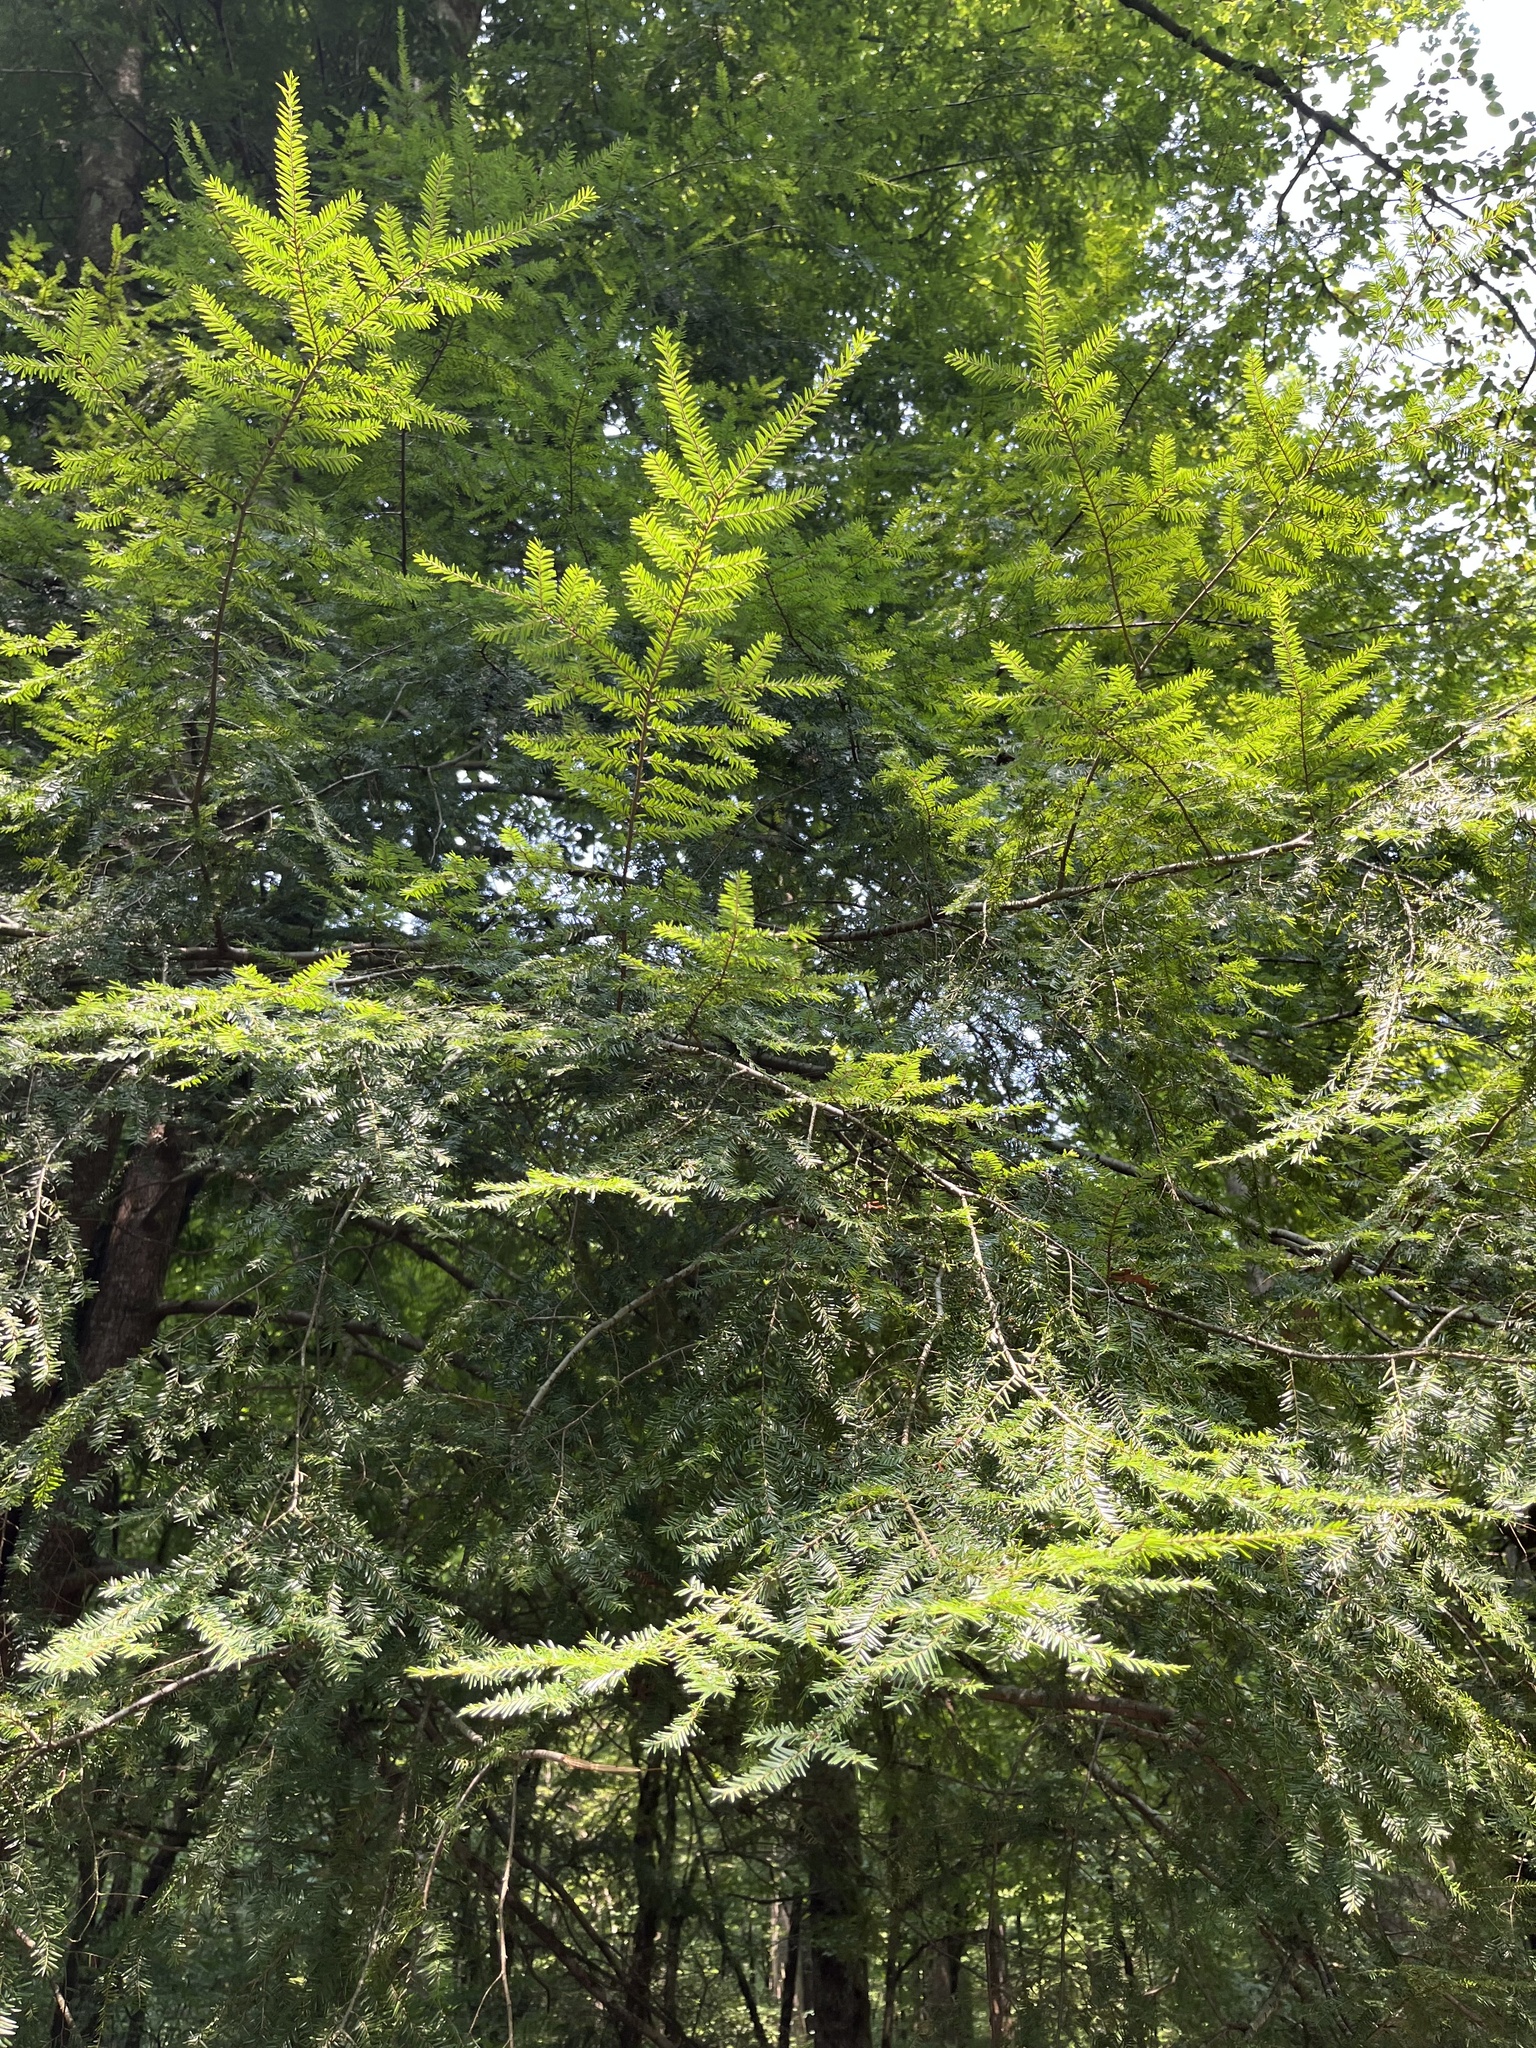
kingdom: Plantae
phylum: Tracheophyta
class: Pinopsida
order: Pinales
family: Pinaceae
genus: Tsuga
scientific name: Tsuga canadensis
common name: Eastern hemlock
